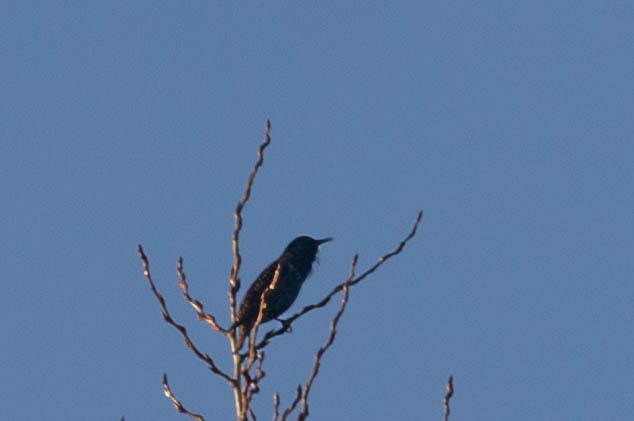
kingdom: Animalia
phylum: Chordata
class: Aves
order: Passeriformes
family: Sturnidae
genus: Sturnus
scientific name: Sturnus vulgaris
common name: Common starling
